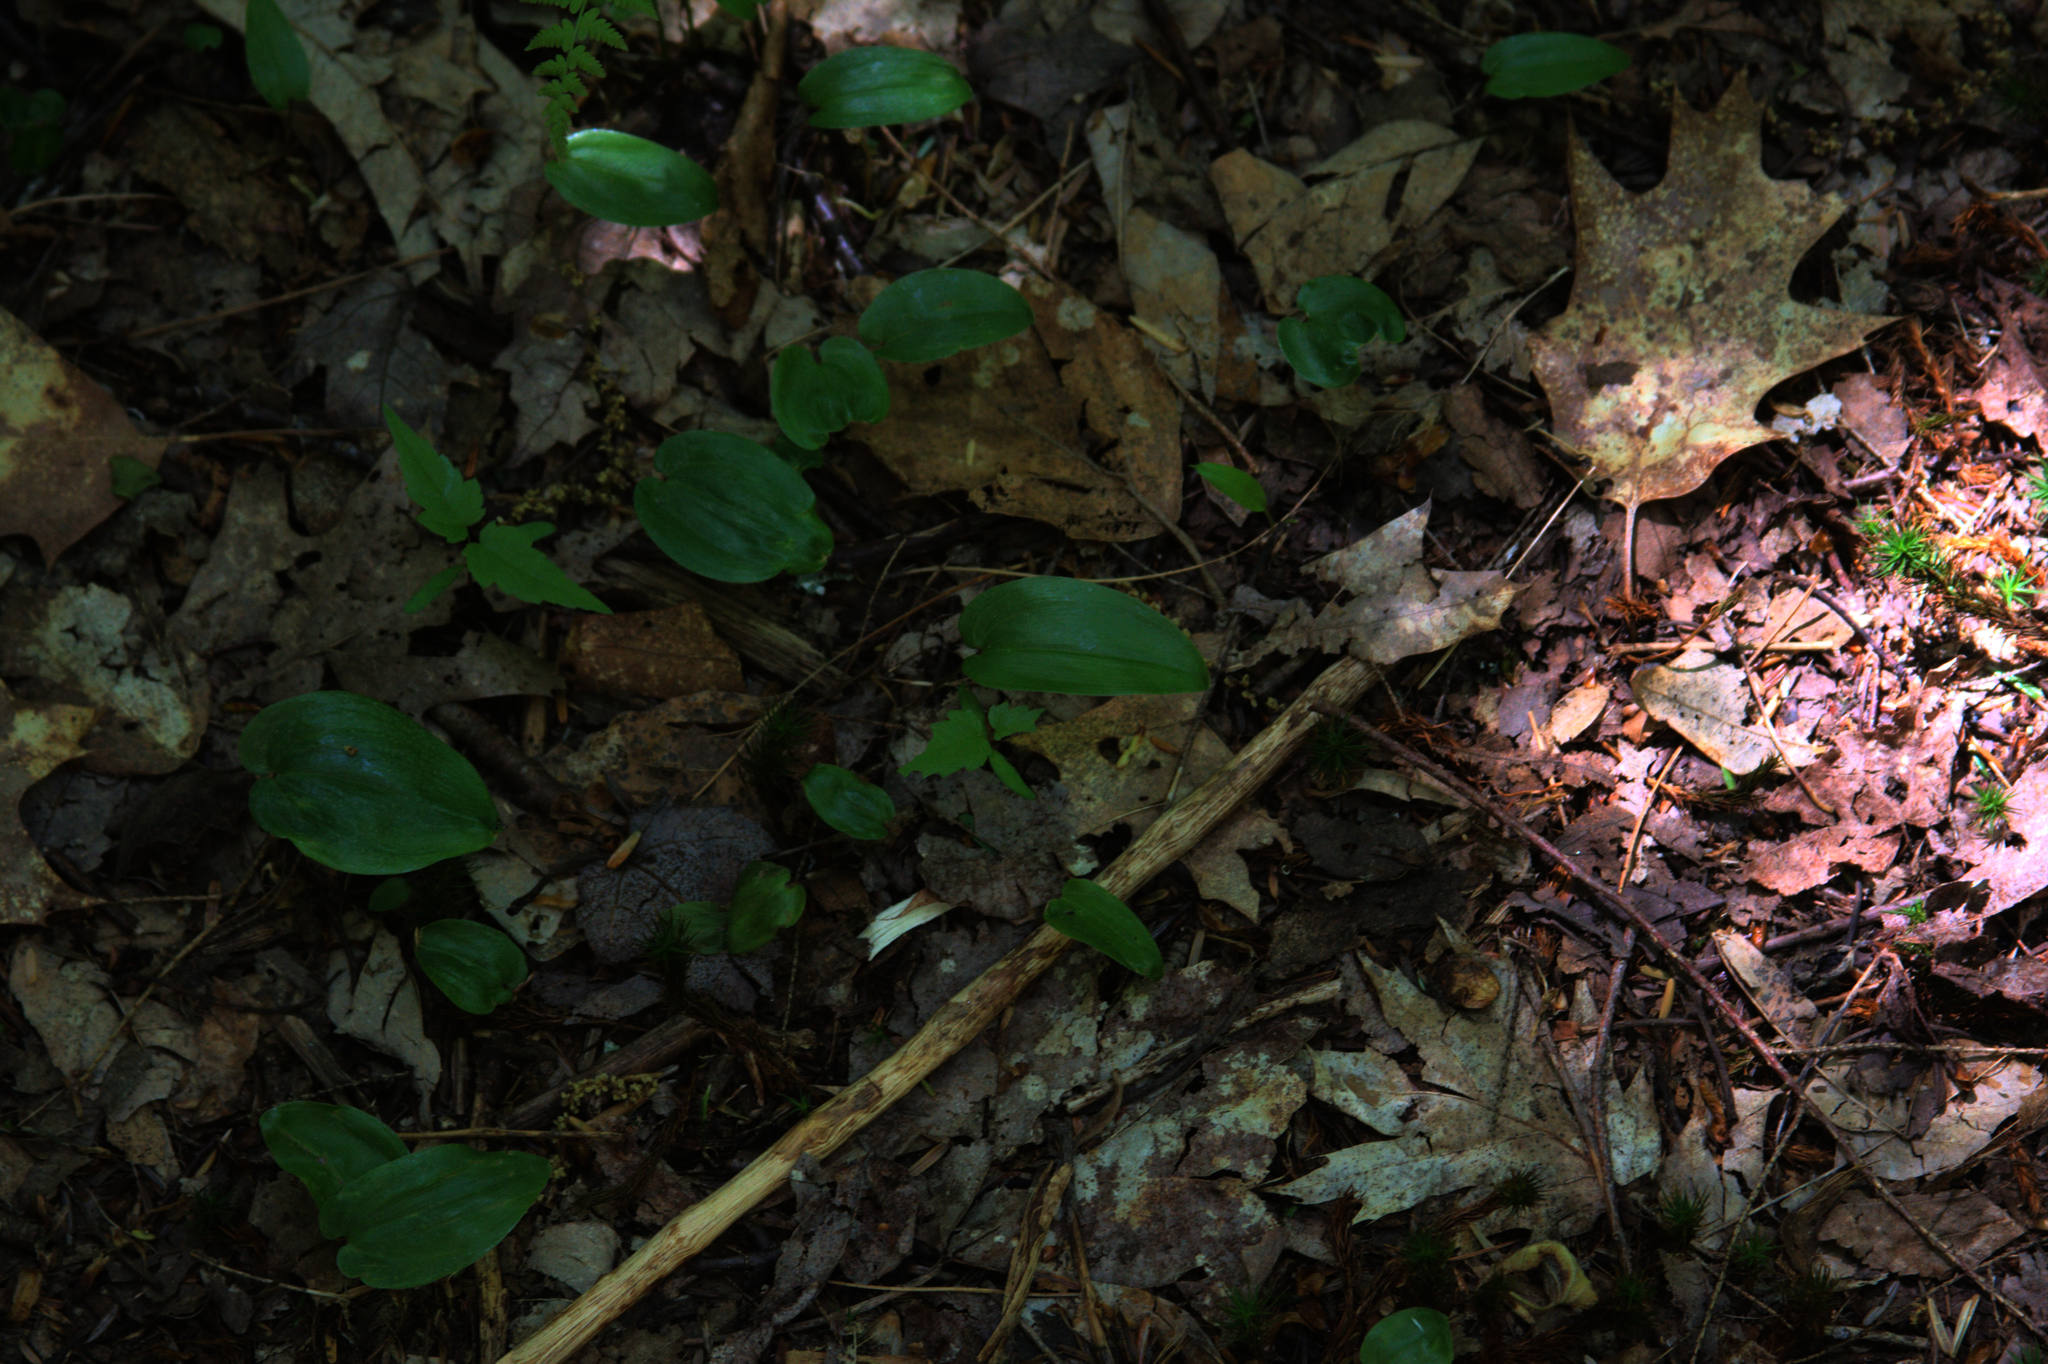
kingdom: Plantae
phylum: Tracheophyta
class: Liliopsida
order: Asparagales
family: Asparagaceae
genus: Maianthemum
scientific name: Maianthemum canadense
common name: False lily-of-the-valley
